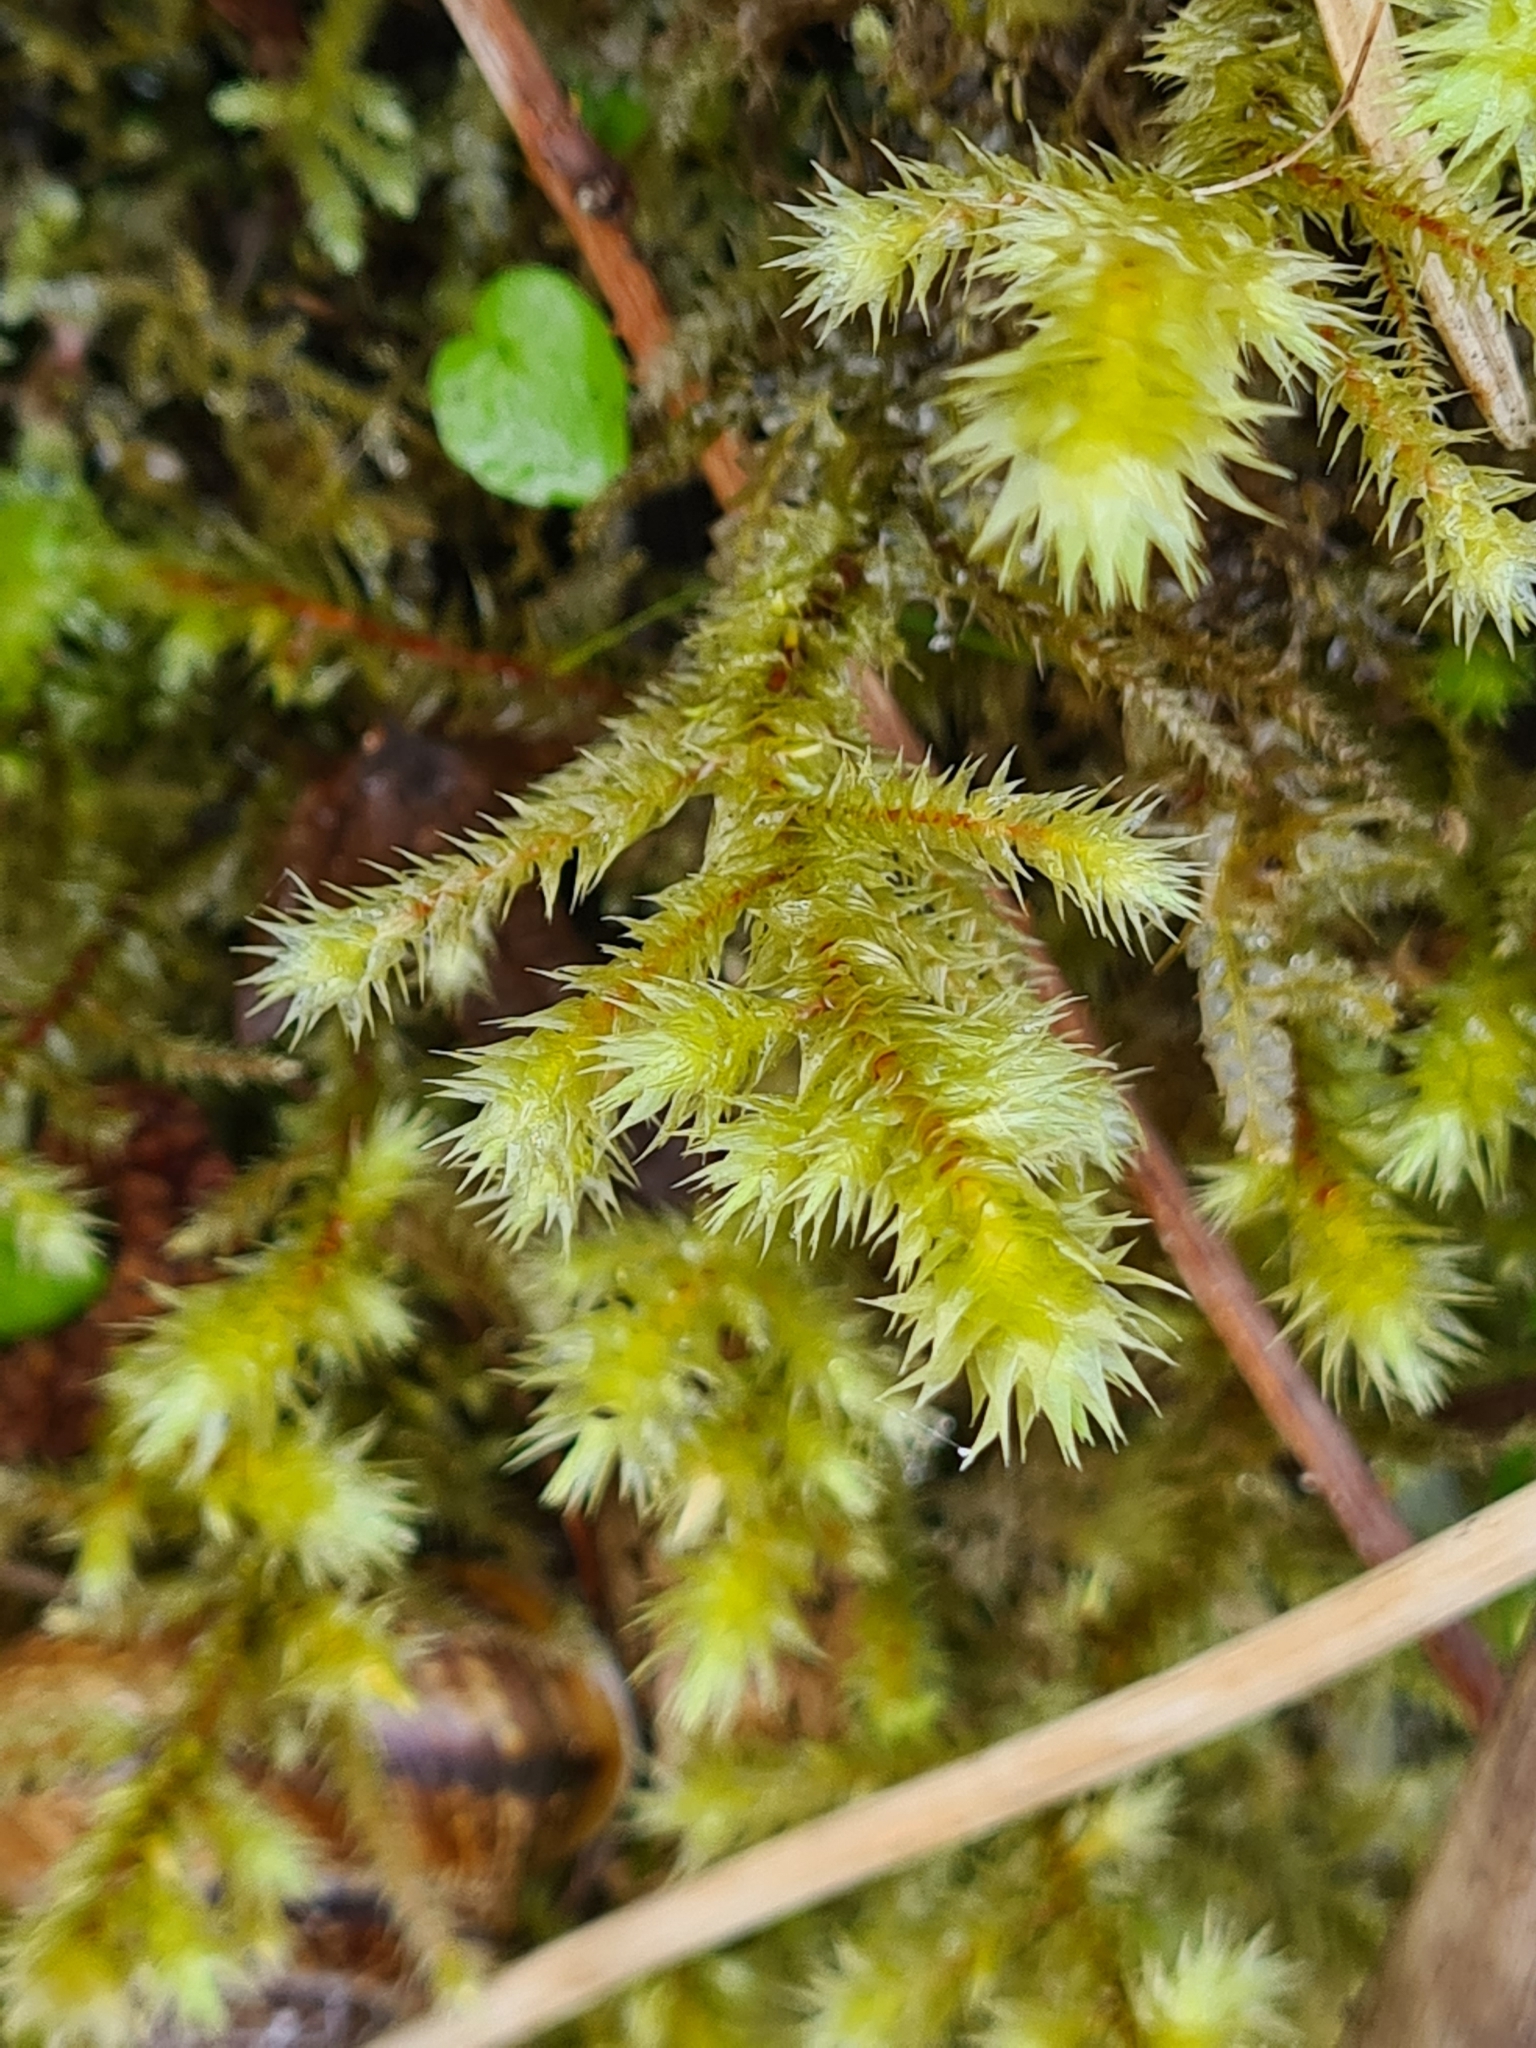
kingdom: Plantae
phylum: Bryophyta
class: Bryopsida
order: Hypnales
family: Hylocomiaceae
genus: Hylocomiadelphus
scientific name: Hylocomiadelphus triquetrus
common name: Rough goose neck moss
